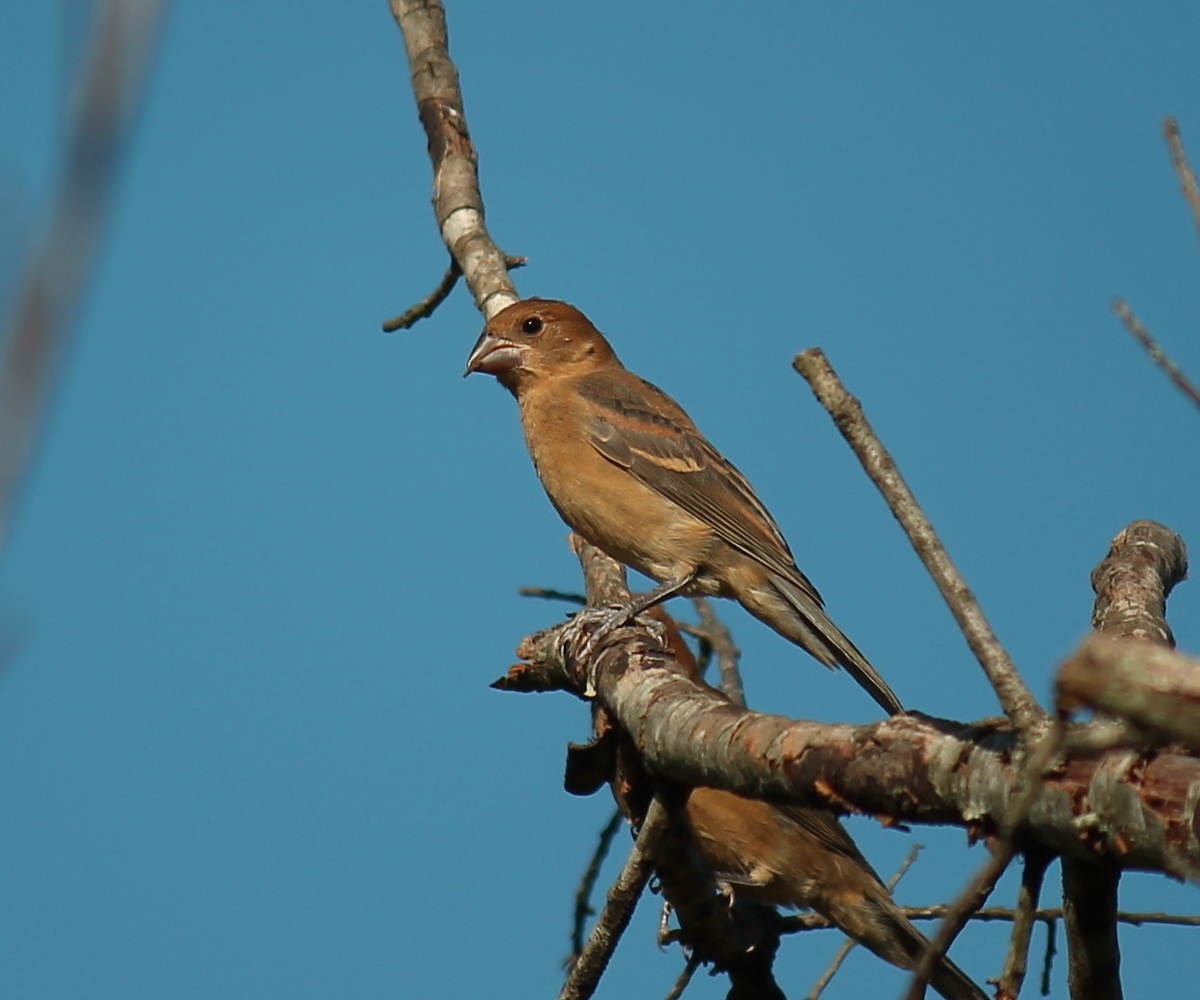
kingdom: Animalia
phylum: Chordata
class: Aves
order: Passeriformes
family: Cardinalidae
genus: Passerina
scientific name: Passerina caerulea
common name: Blue grosbeak
